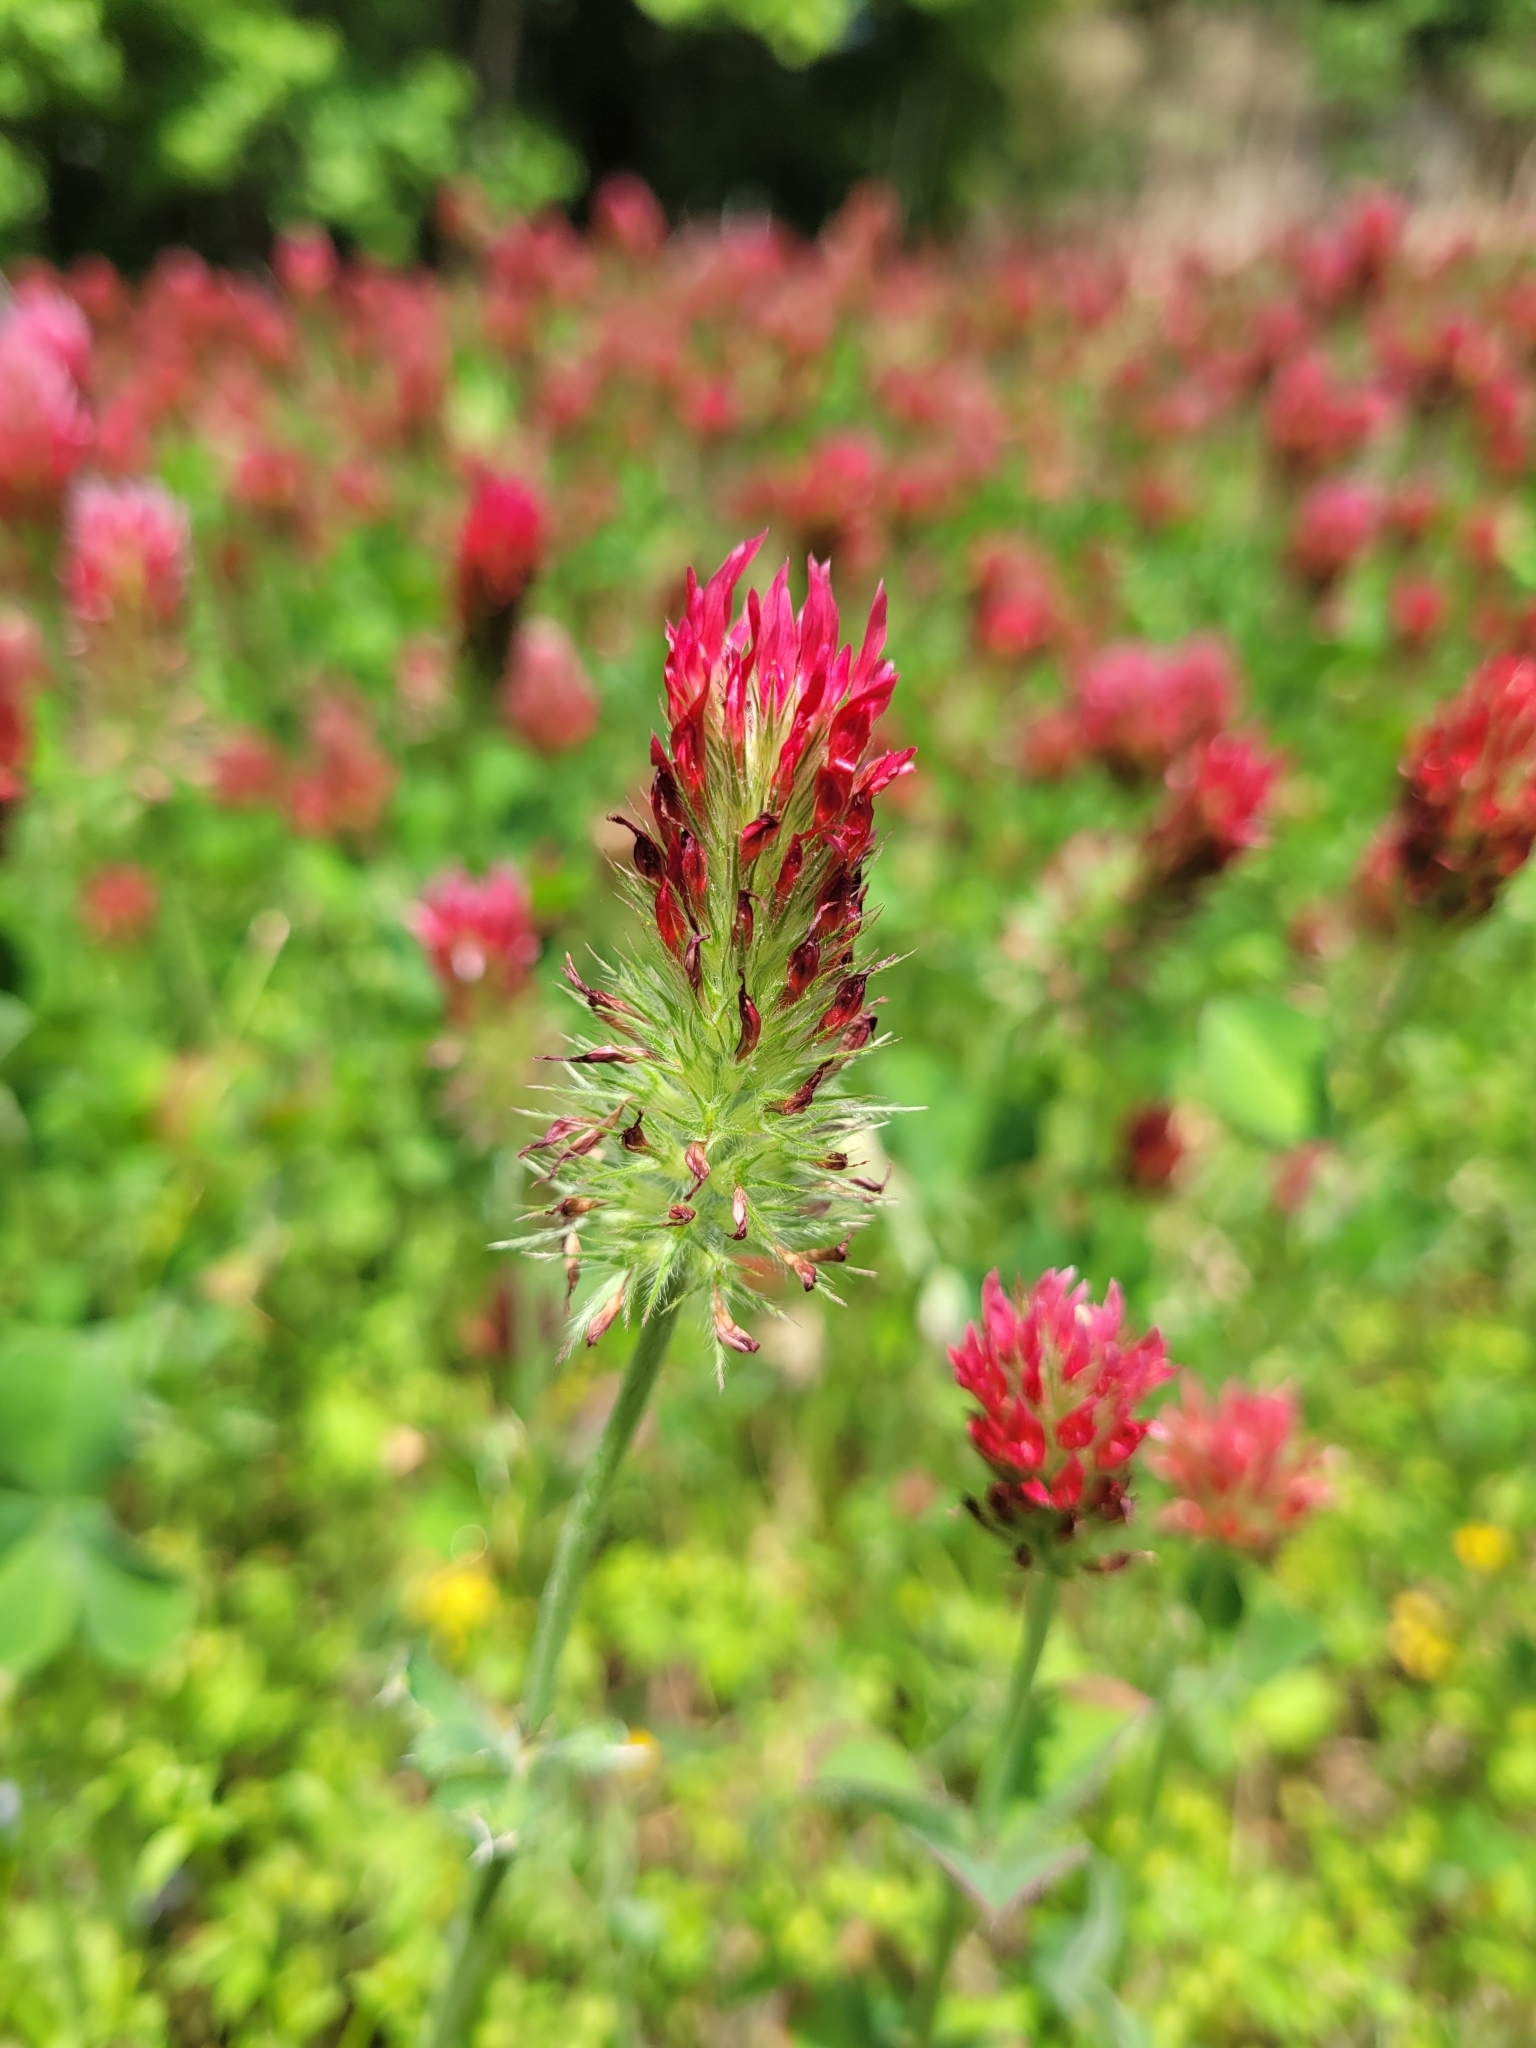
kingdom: Plantae
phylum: Tracheophyta
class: Magnoliopsida
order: Fabales
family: Fabaceae
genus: Trifolium
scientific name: Trifolium incarnatum
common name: Crimson clover
